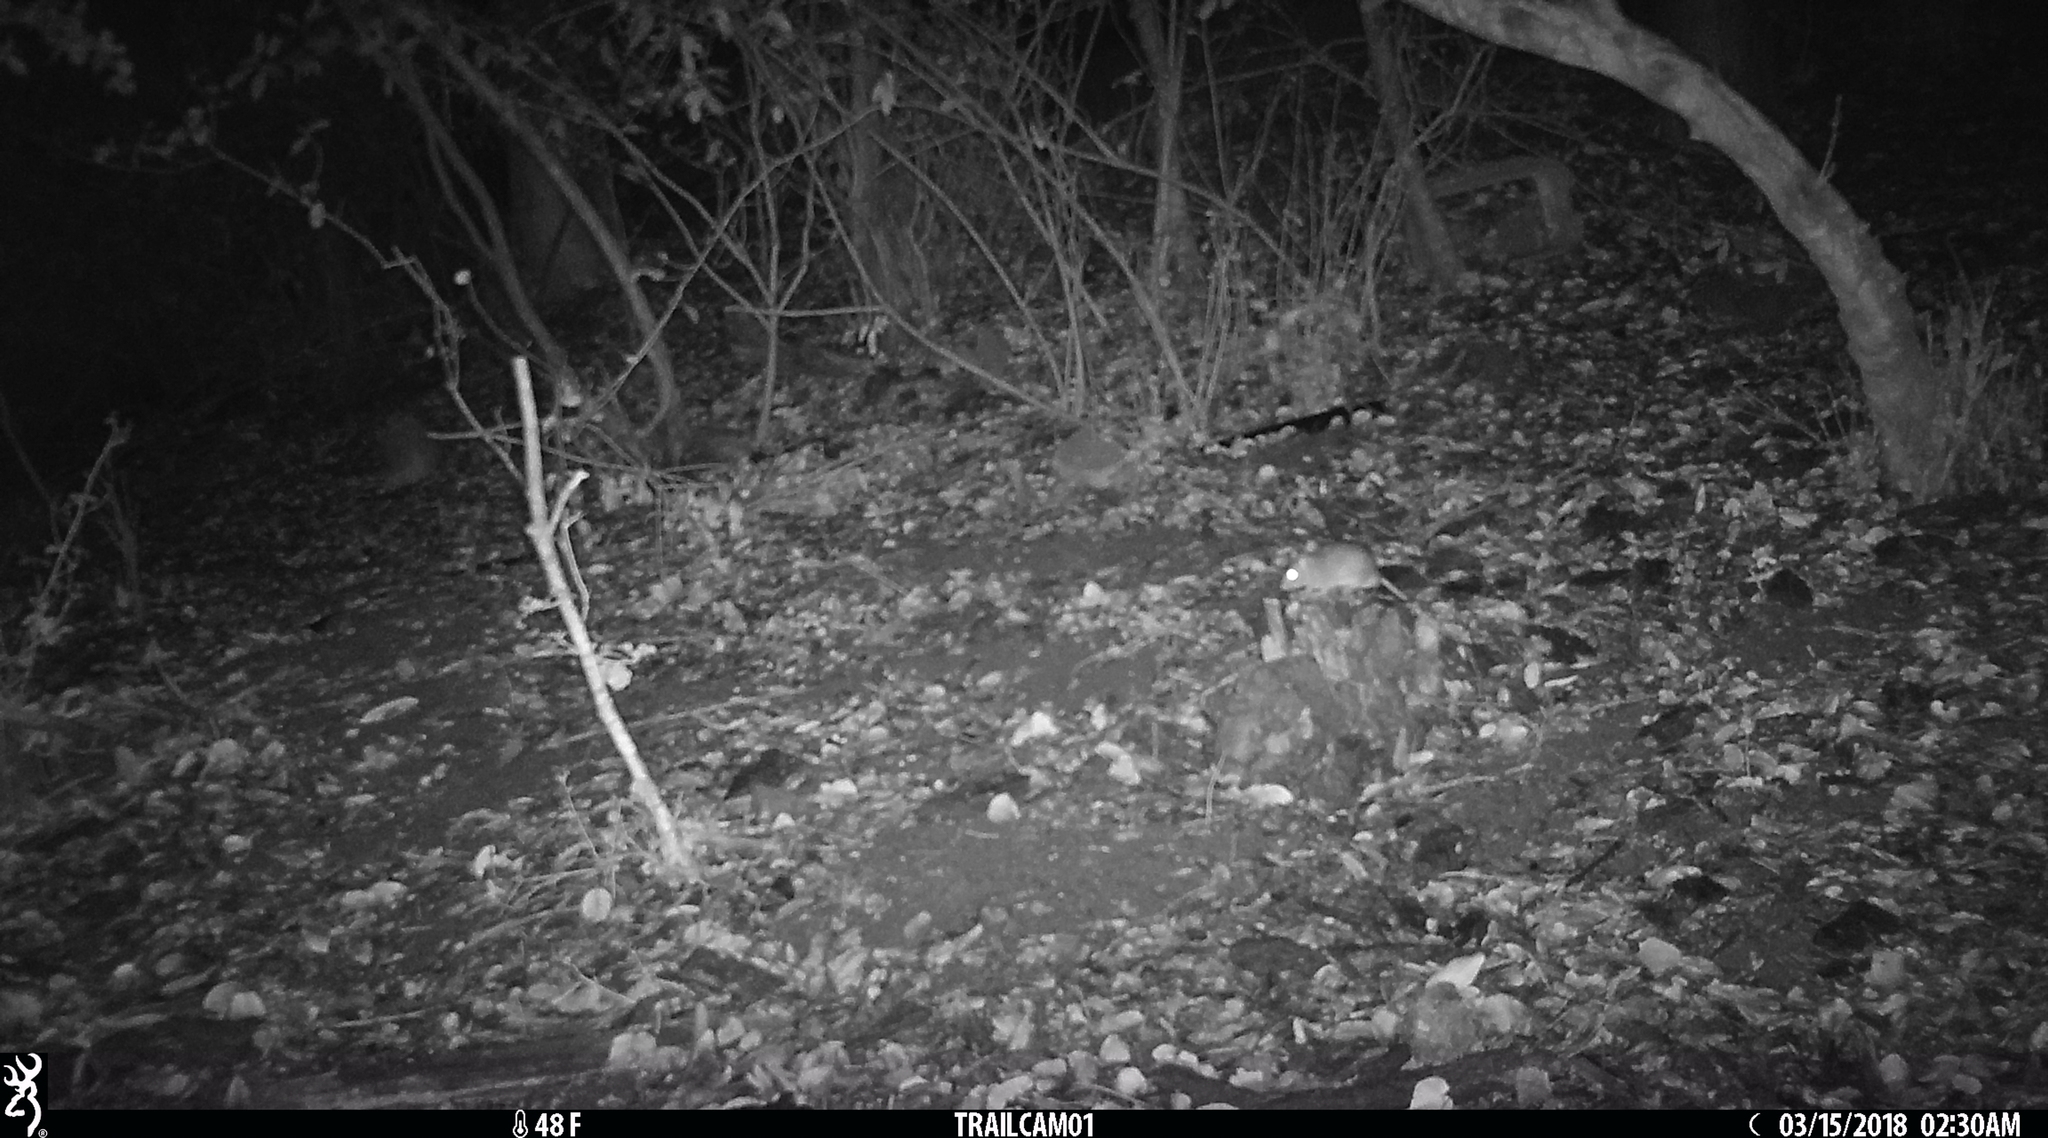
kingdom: Animalia
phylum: Chordata
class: Mammalia
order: Rodentia
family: Cricetidae
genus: Neotoma
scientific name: Neotoma fuscipes
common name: Dusky-footed woodrat
